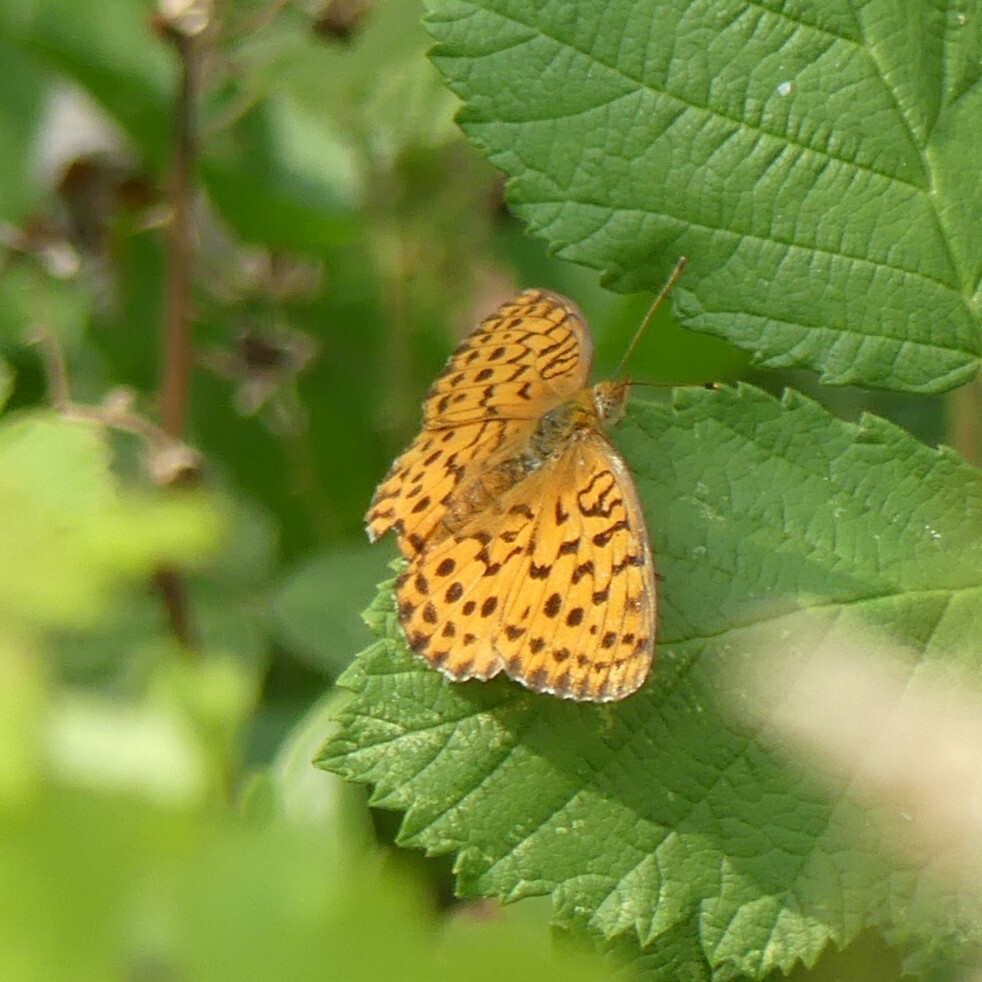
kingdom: Animalia
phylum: Arthropoda
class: Insecta
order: Lepidoptera
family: Nymphalidae
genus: Brenthis
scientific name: Brenthis daphne
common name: Marbled fritillary
